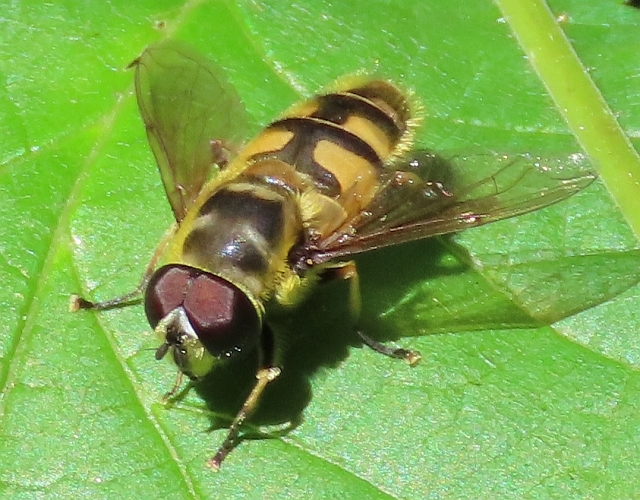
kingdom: Animalia
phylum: Arthropoda
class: Insecta
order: Diptera
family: Syrphidae
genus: Myathropa
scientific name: Myathropa florea
